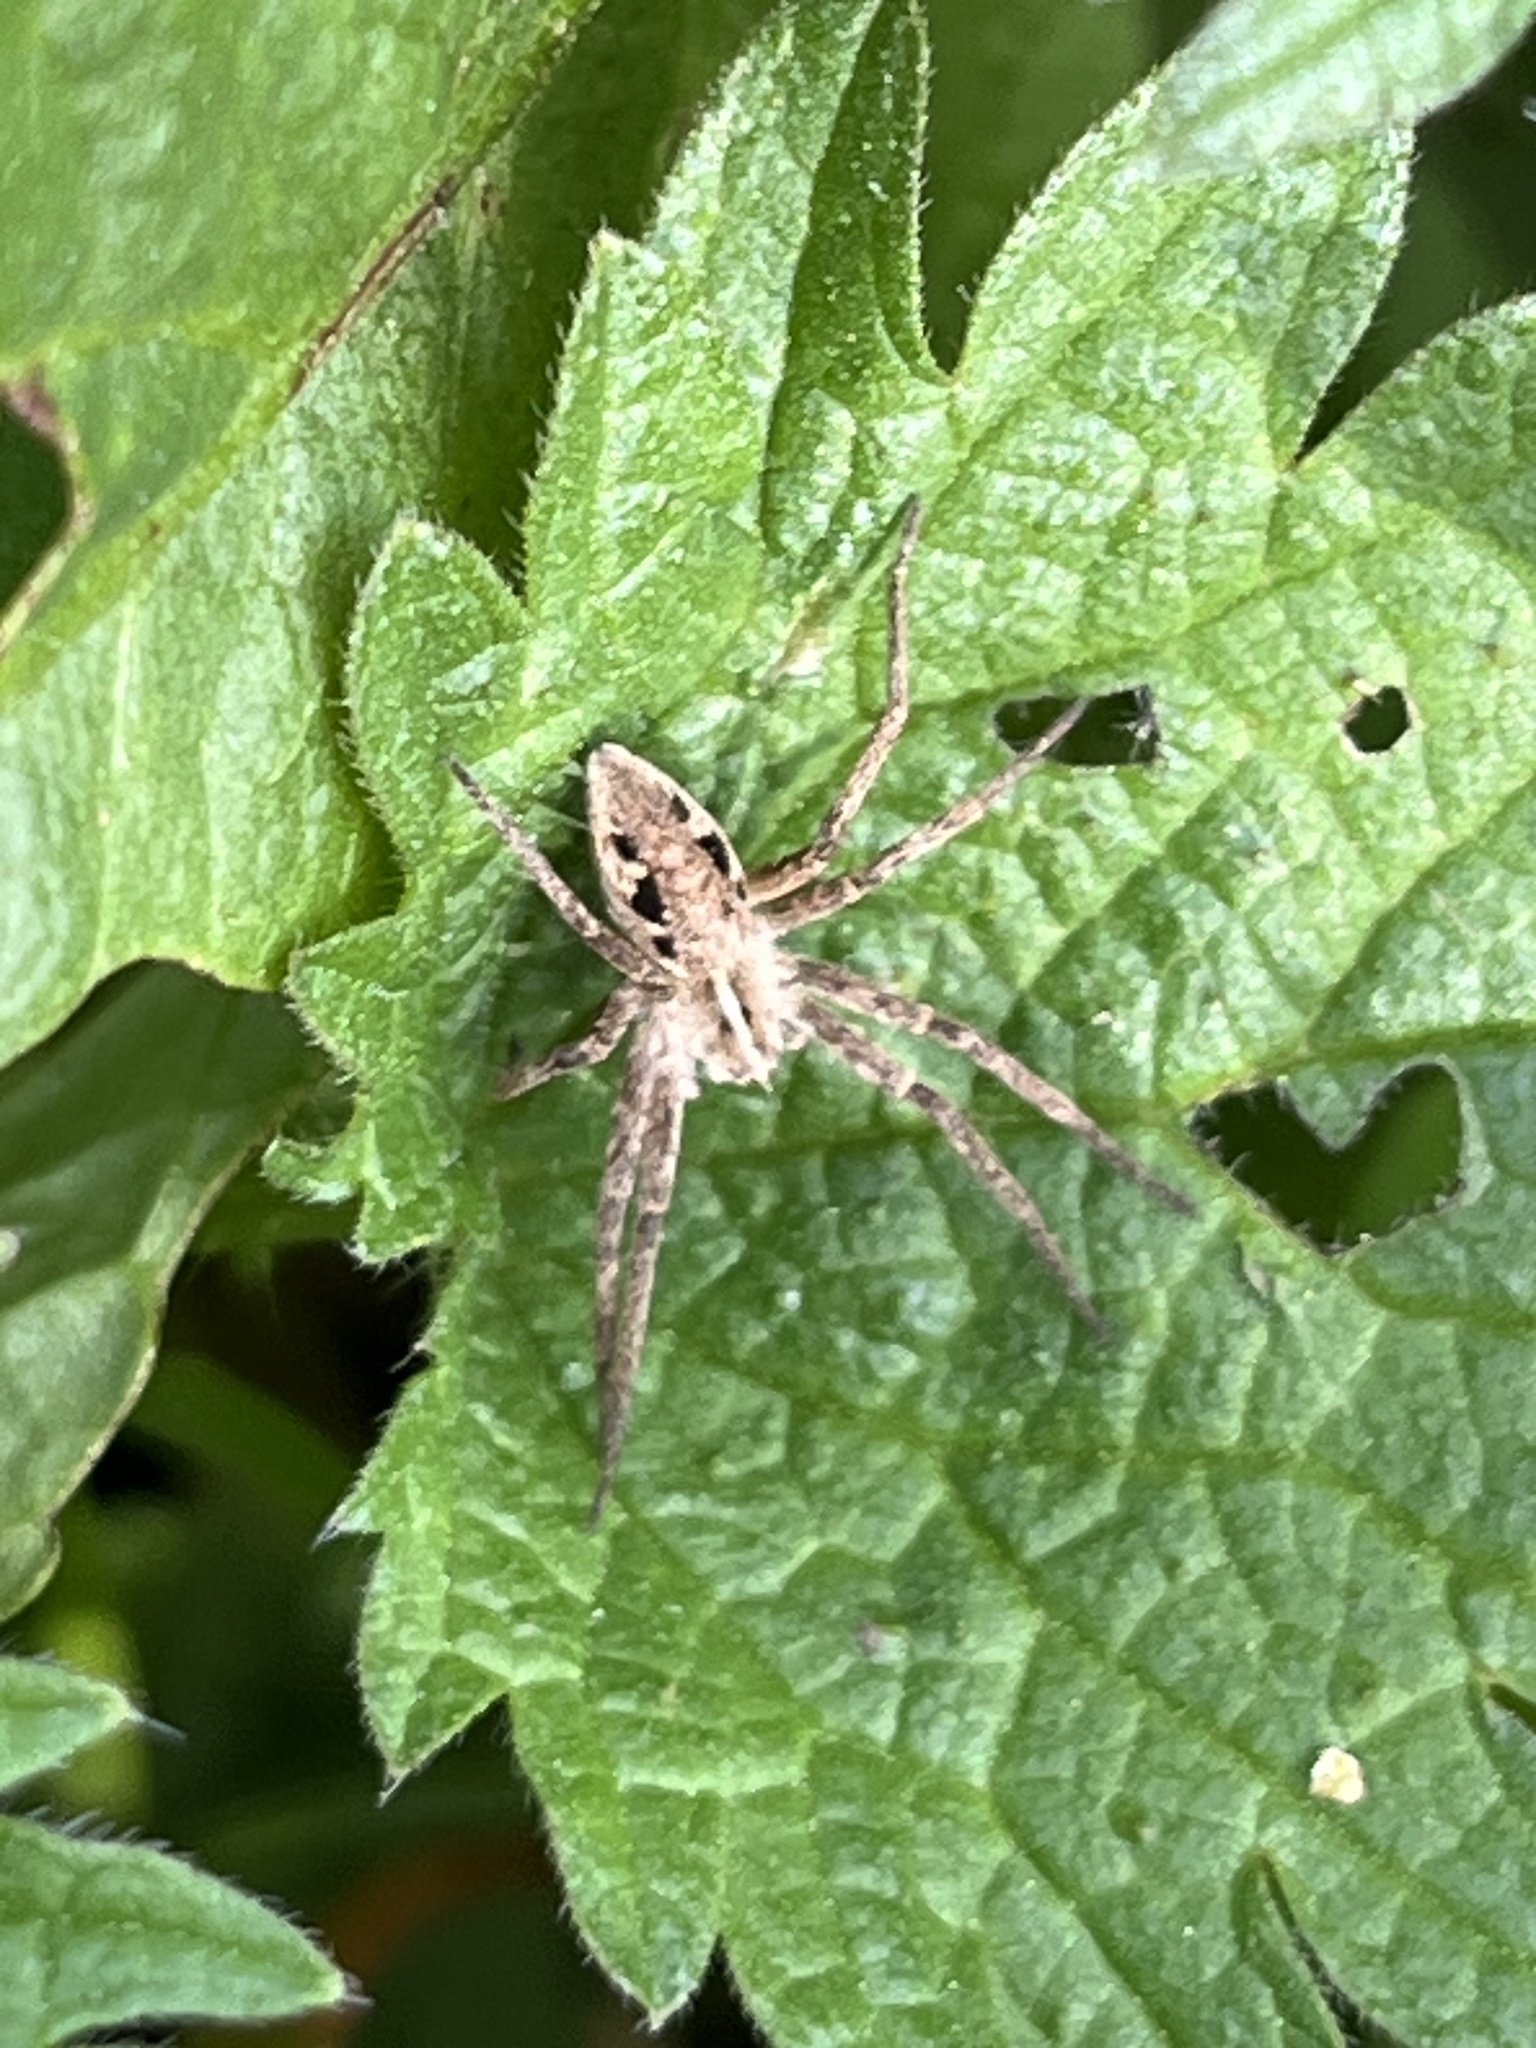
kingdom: Animalia
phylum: Arthropoda
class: Arachnida
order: Araneae
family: Pisauridae
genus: Pisaura
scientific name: Pisaura mirabilis
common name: Tent spider
